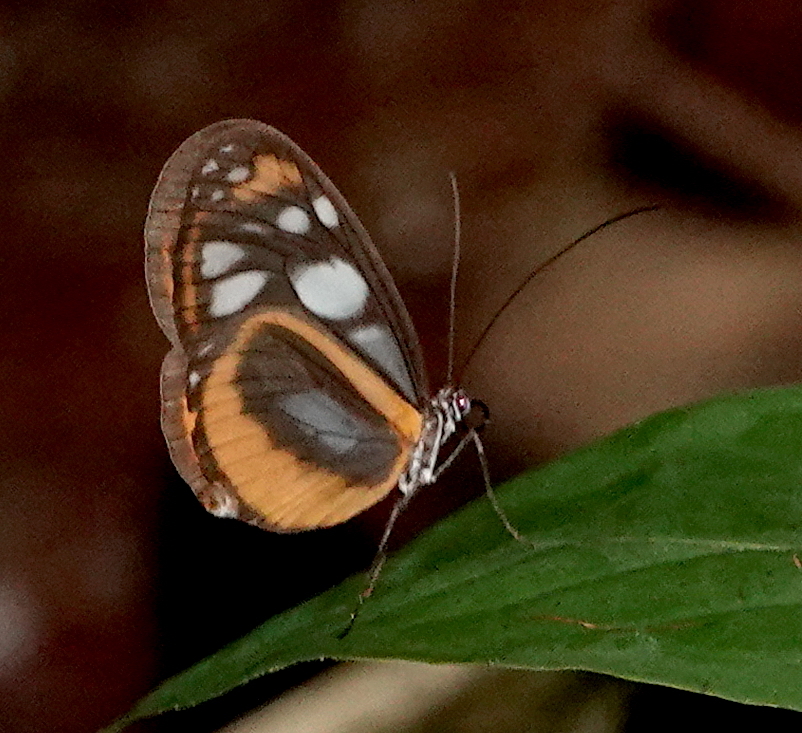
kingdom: Animalia
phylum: Arthropoda
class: Insecta
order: Lepidoptera
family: Nymphalidae
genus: Hyposcada
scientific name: Hyposcada illinissa
